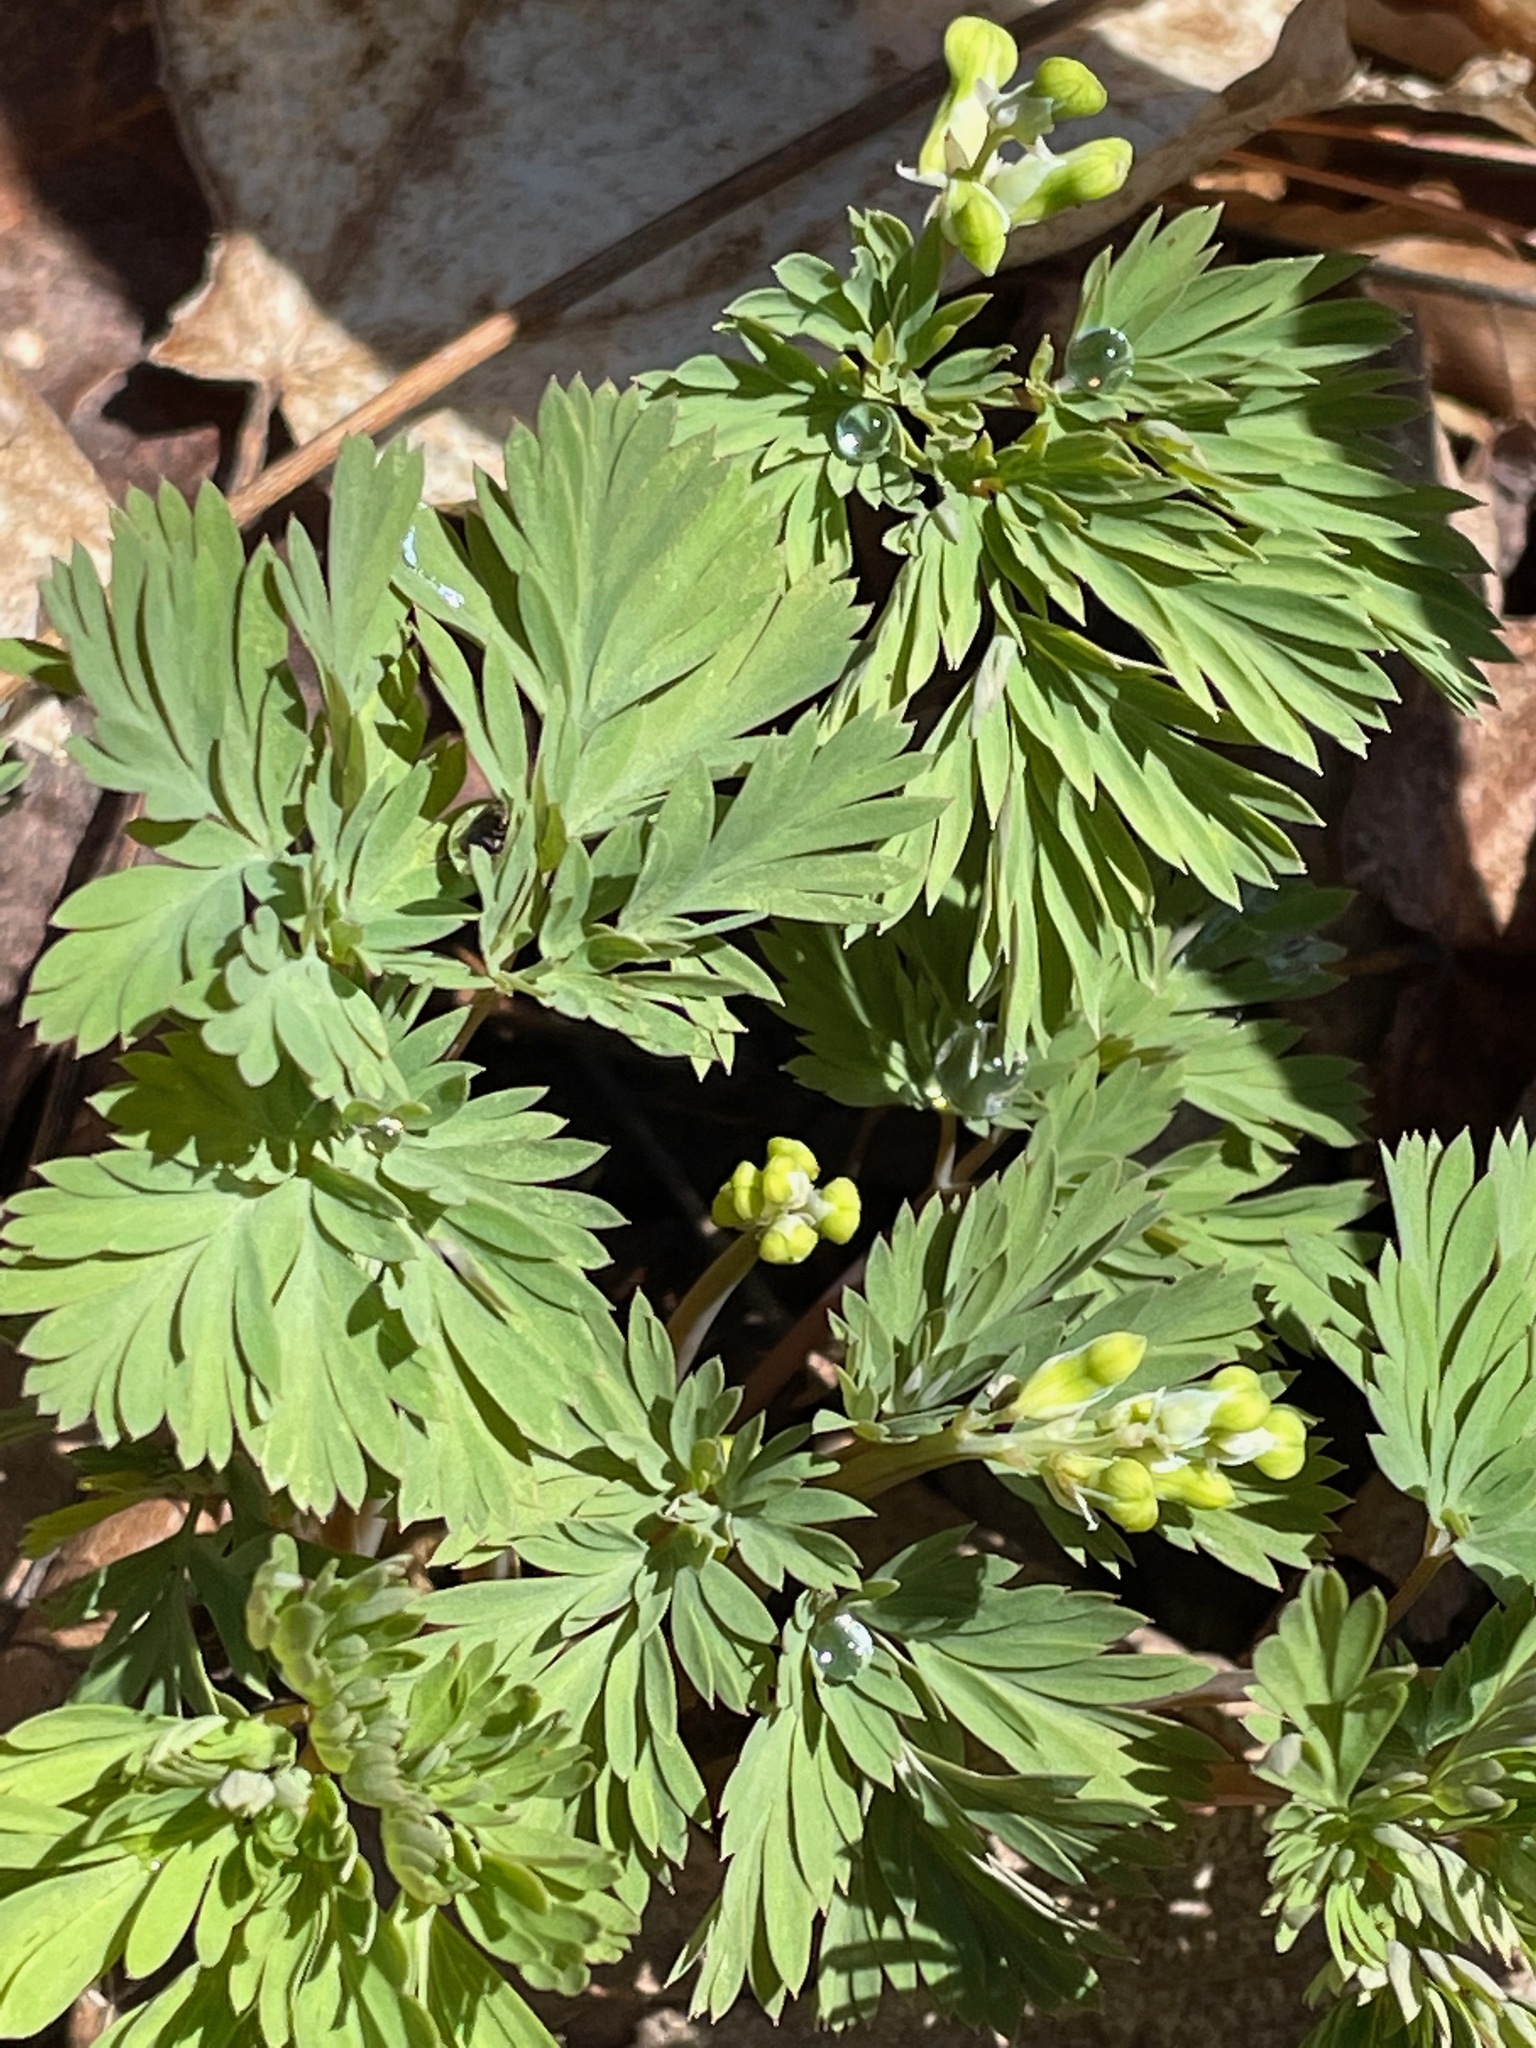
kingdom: Plantae
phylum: Tracheophyta
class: Magnoliopsida
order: Ranunculales
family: Papaveraceae
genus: Dicentra
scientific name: Dicentra cucullaria
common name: Dutchman's breeches
